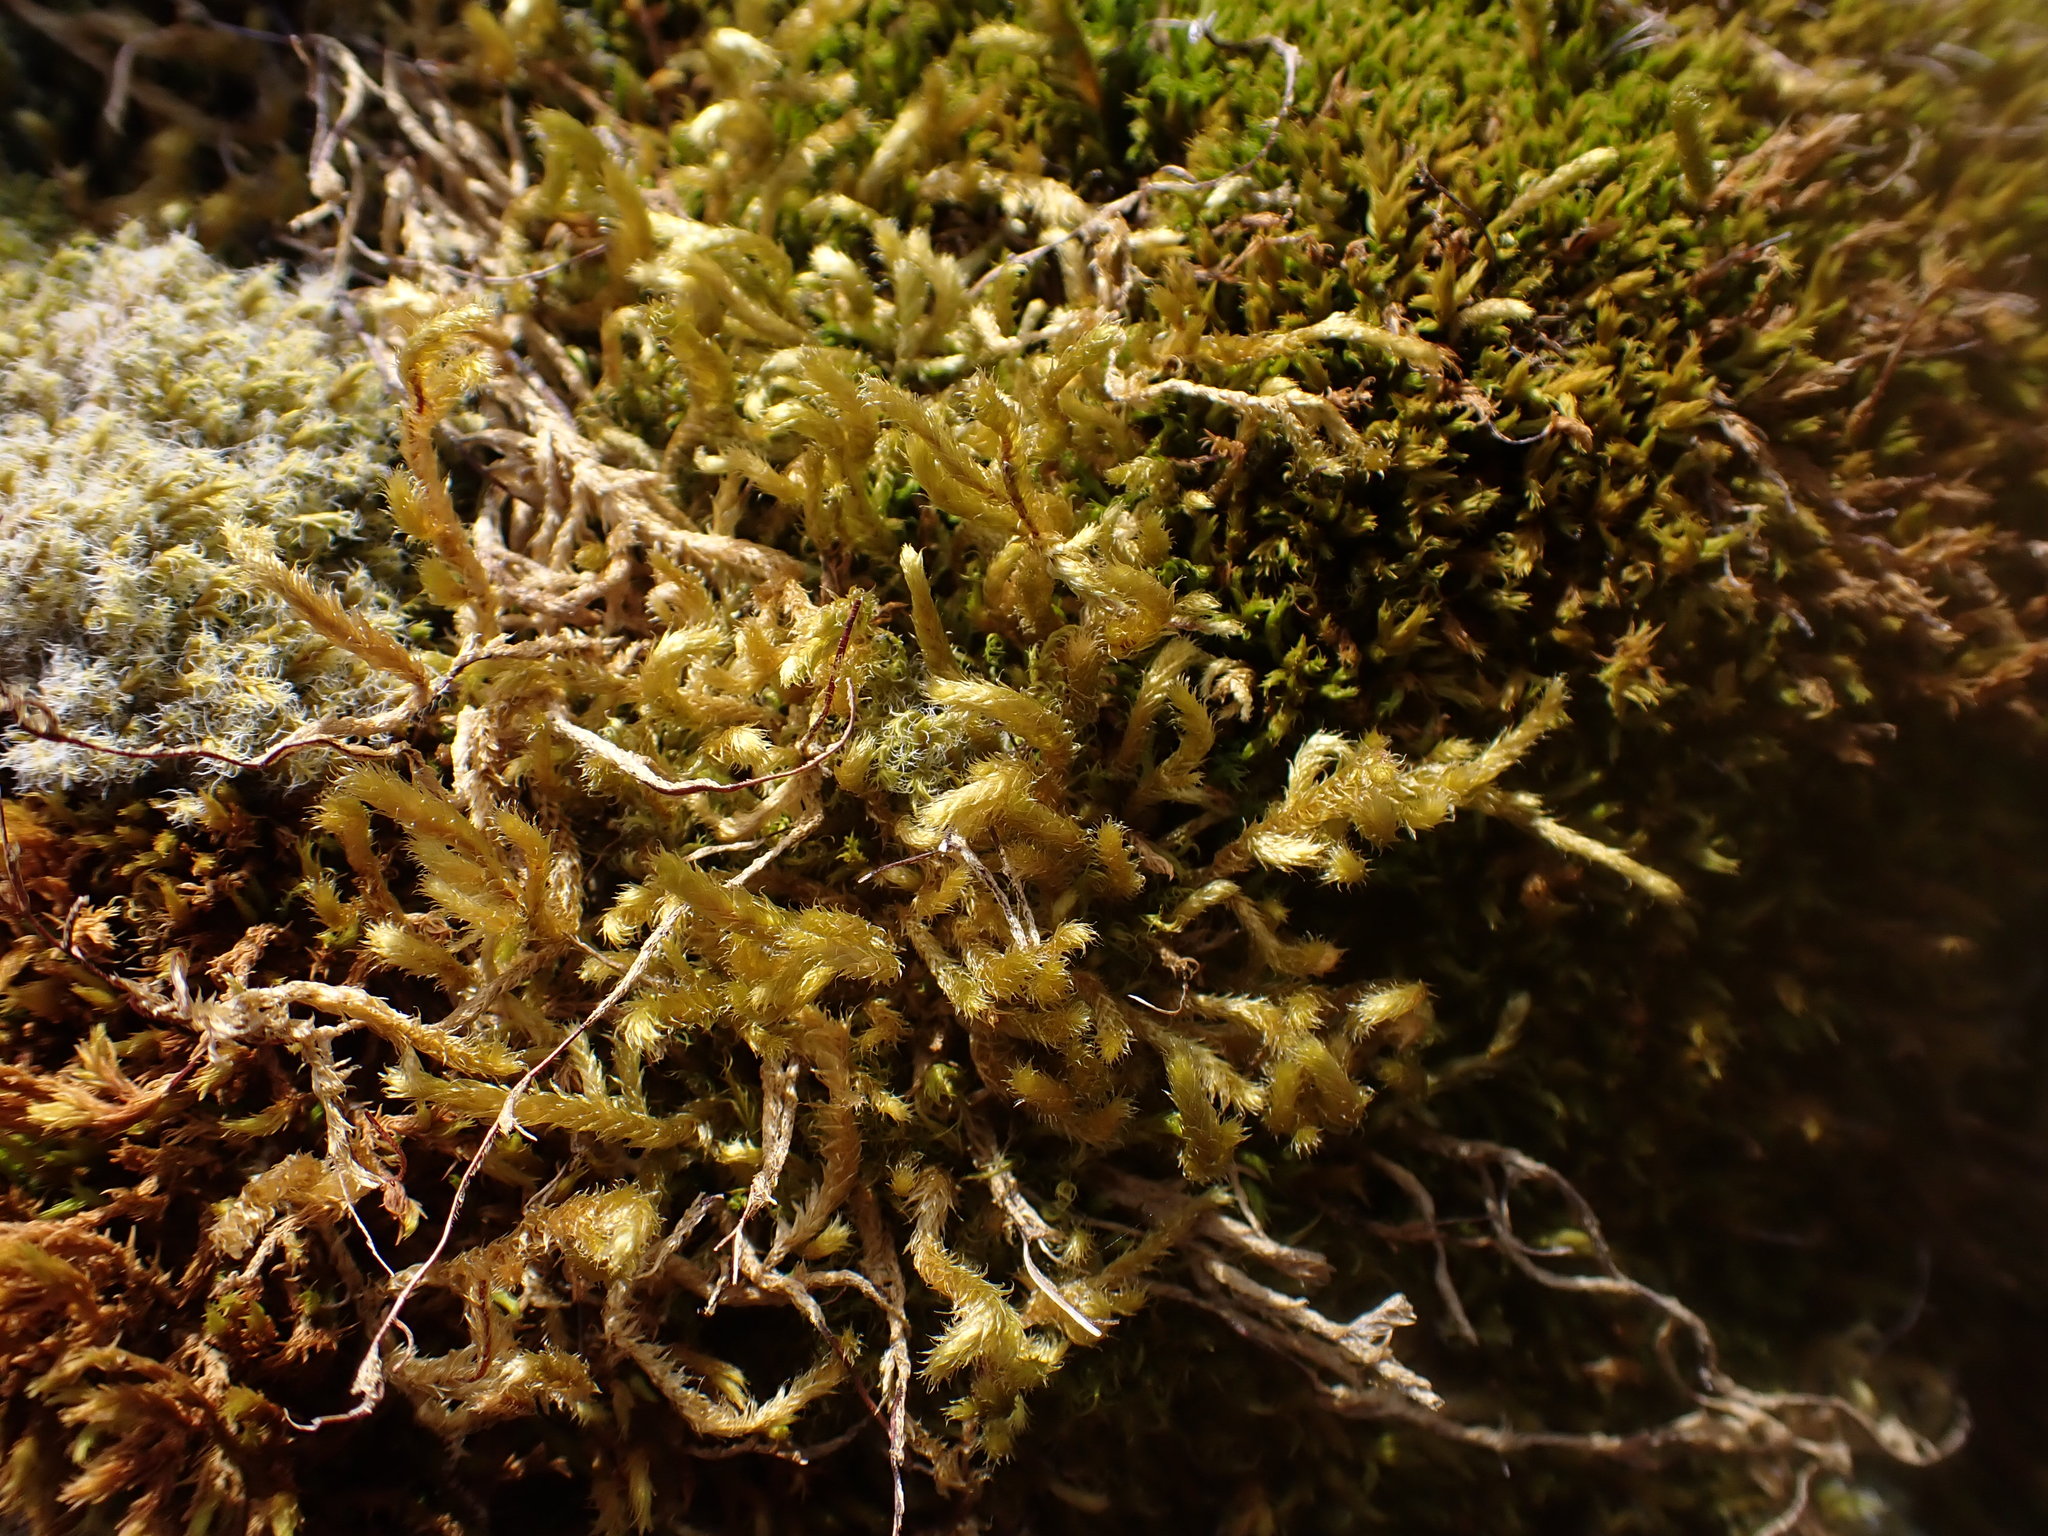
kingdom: Plantae
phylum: Bryophyta
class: Bryopsida
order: Hypnales
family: Antitrichiaceae
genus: Antitrichia
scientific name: Antitrichia curtipendula
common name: Pendulous wing-moss
